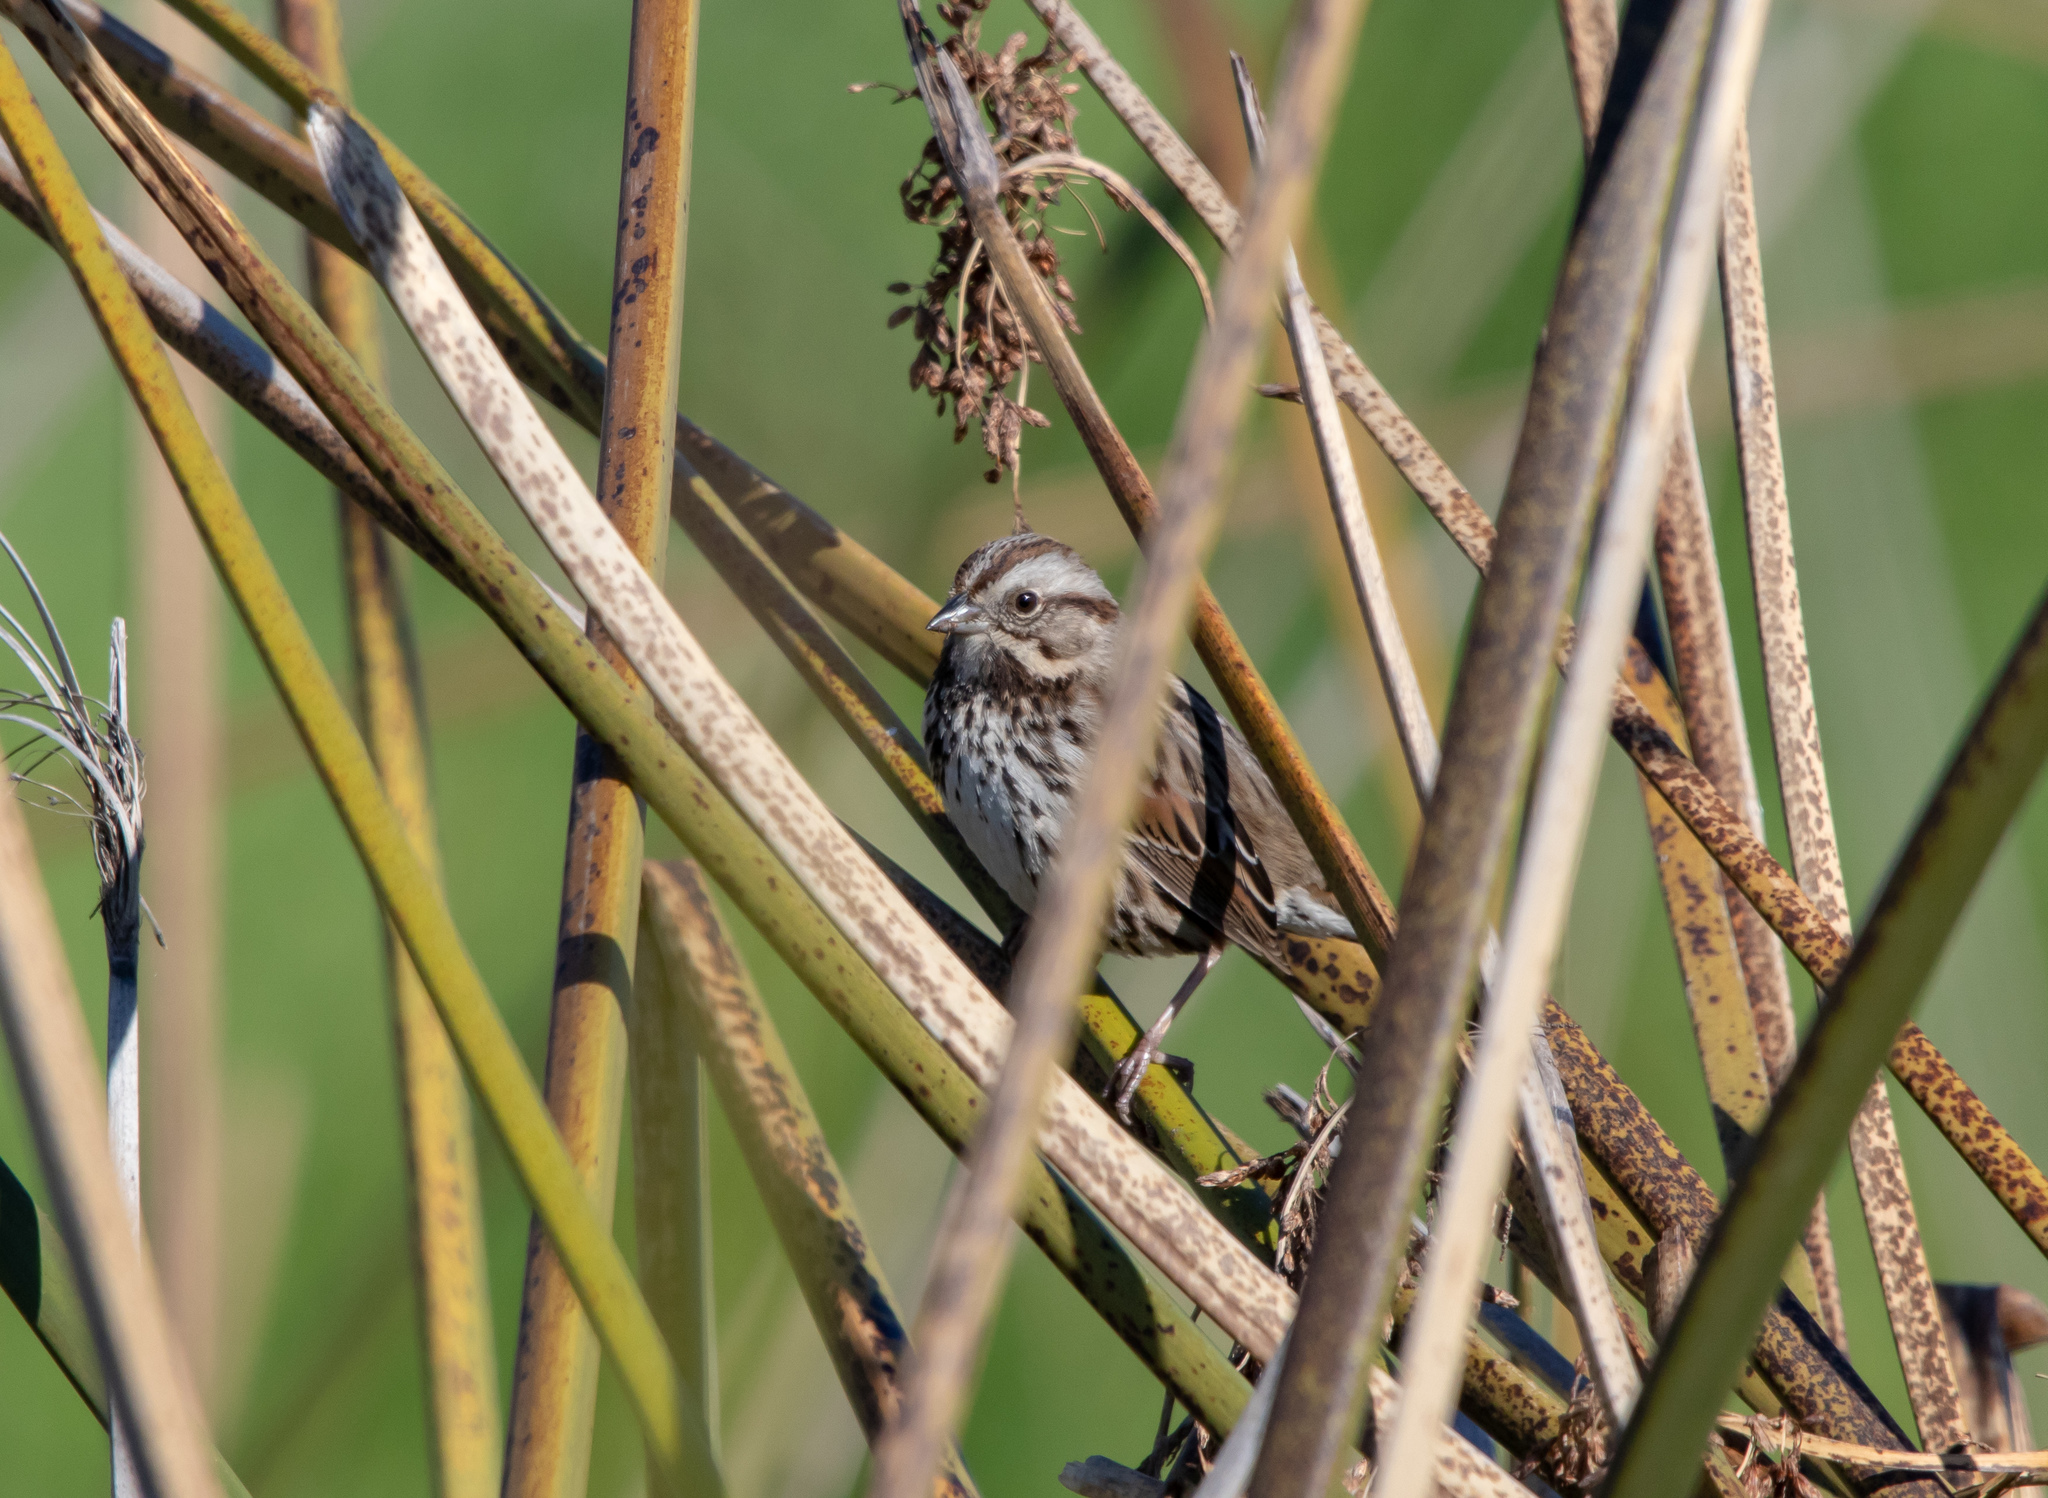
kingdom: Animalia
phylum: Chordata
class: Aves
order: Passeriformes
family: Passerellidae
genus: Melospiza
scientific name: Melospiza melodia
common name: Song sparrow
